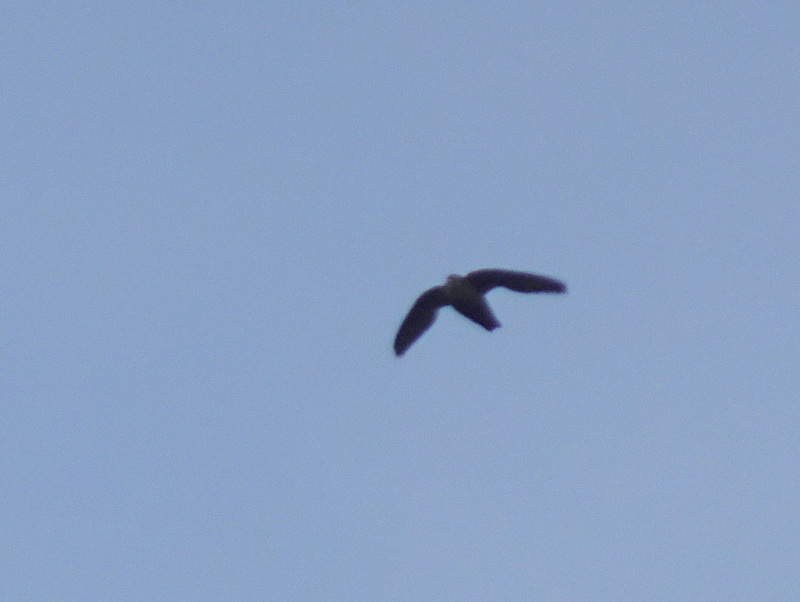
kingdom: Animalia
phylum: Chordata
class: Aves
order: Apodiformes
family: Apodidae
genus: Chaetura
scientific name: Chaetura pelagica
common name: Chimney swift
